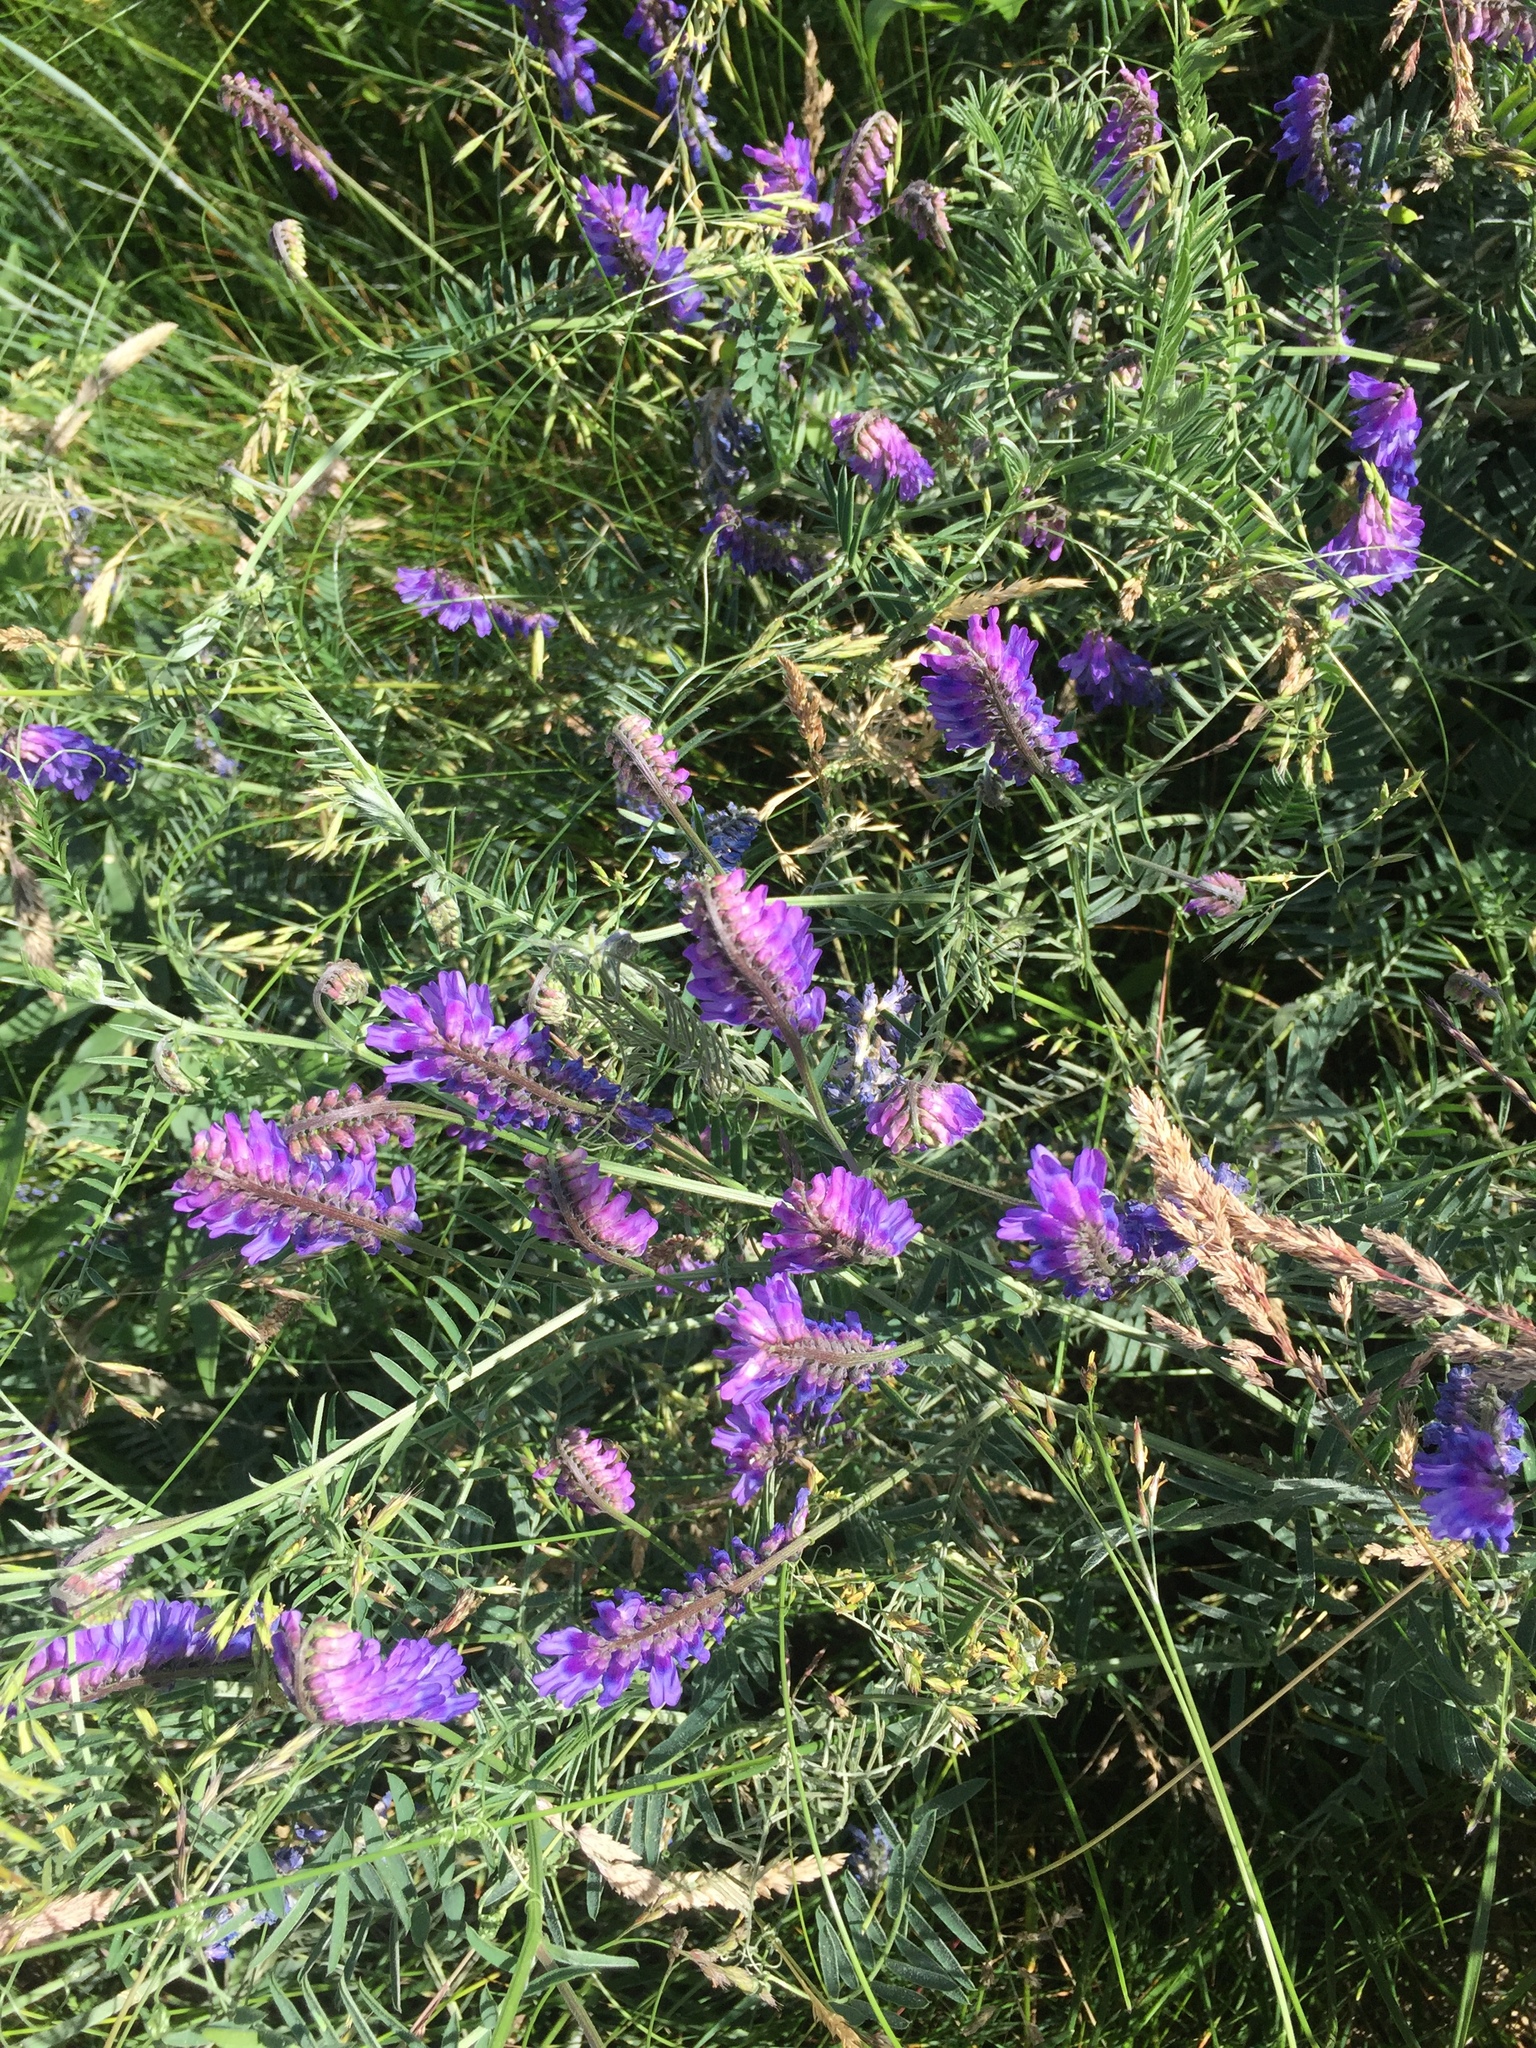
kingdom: Plantae
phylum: Tracheophyta
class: Magnoliopsida
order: Fabales
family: Fabaceae
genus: Vicia
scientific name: Vicia cracca
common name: Bird vetch
